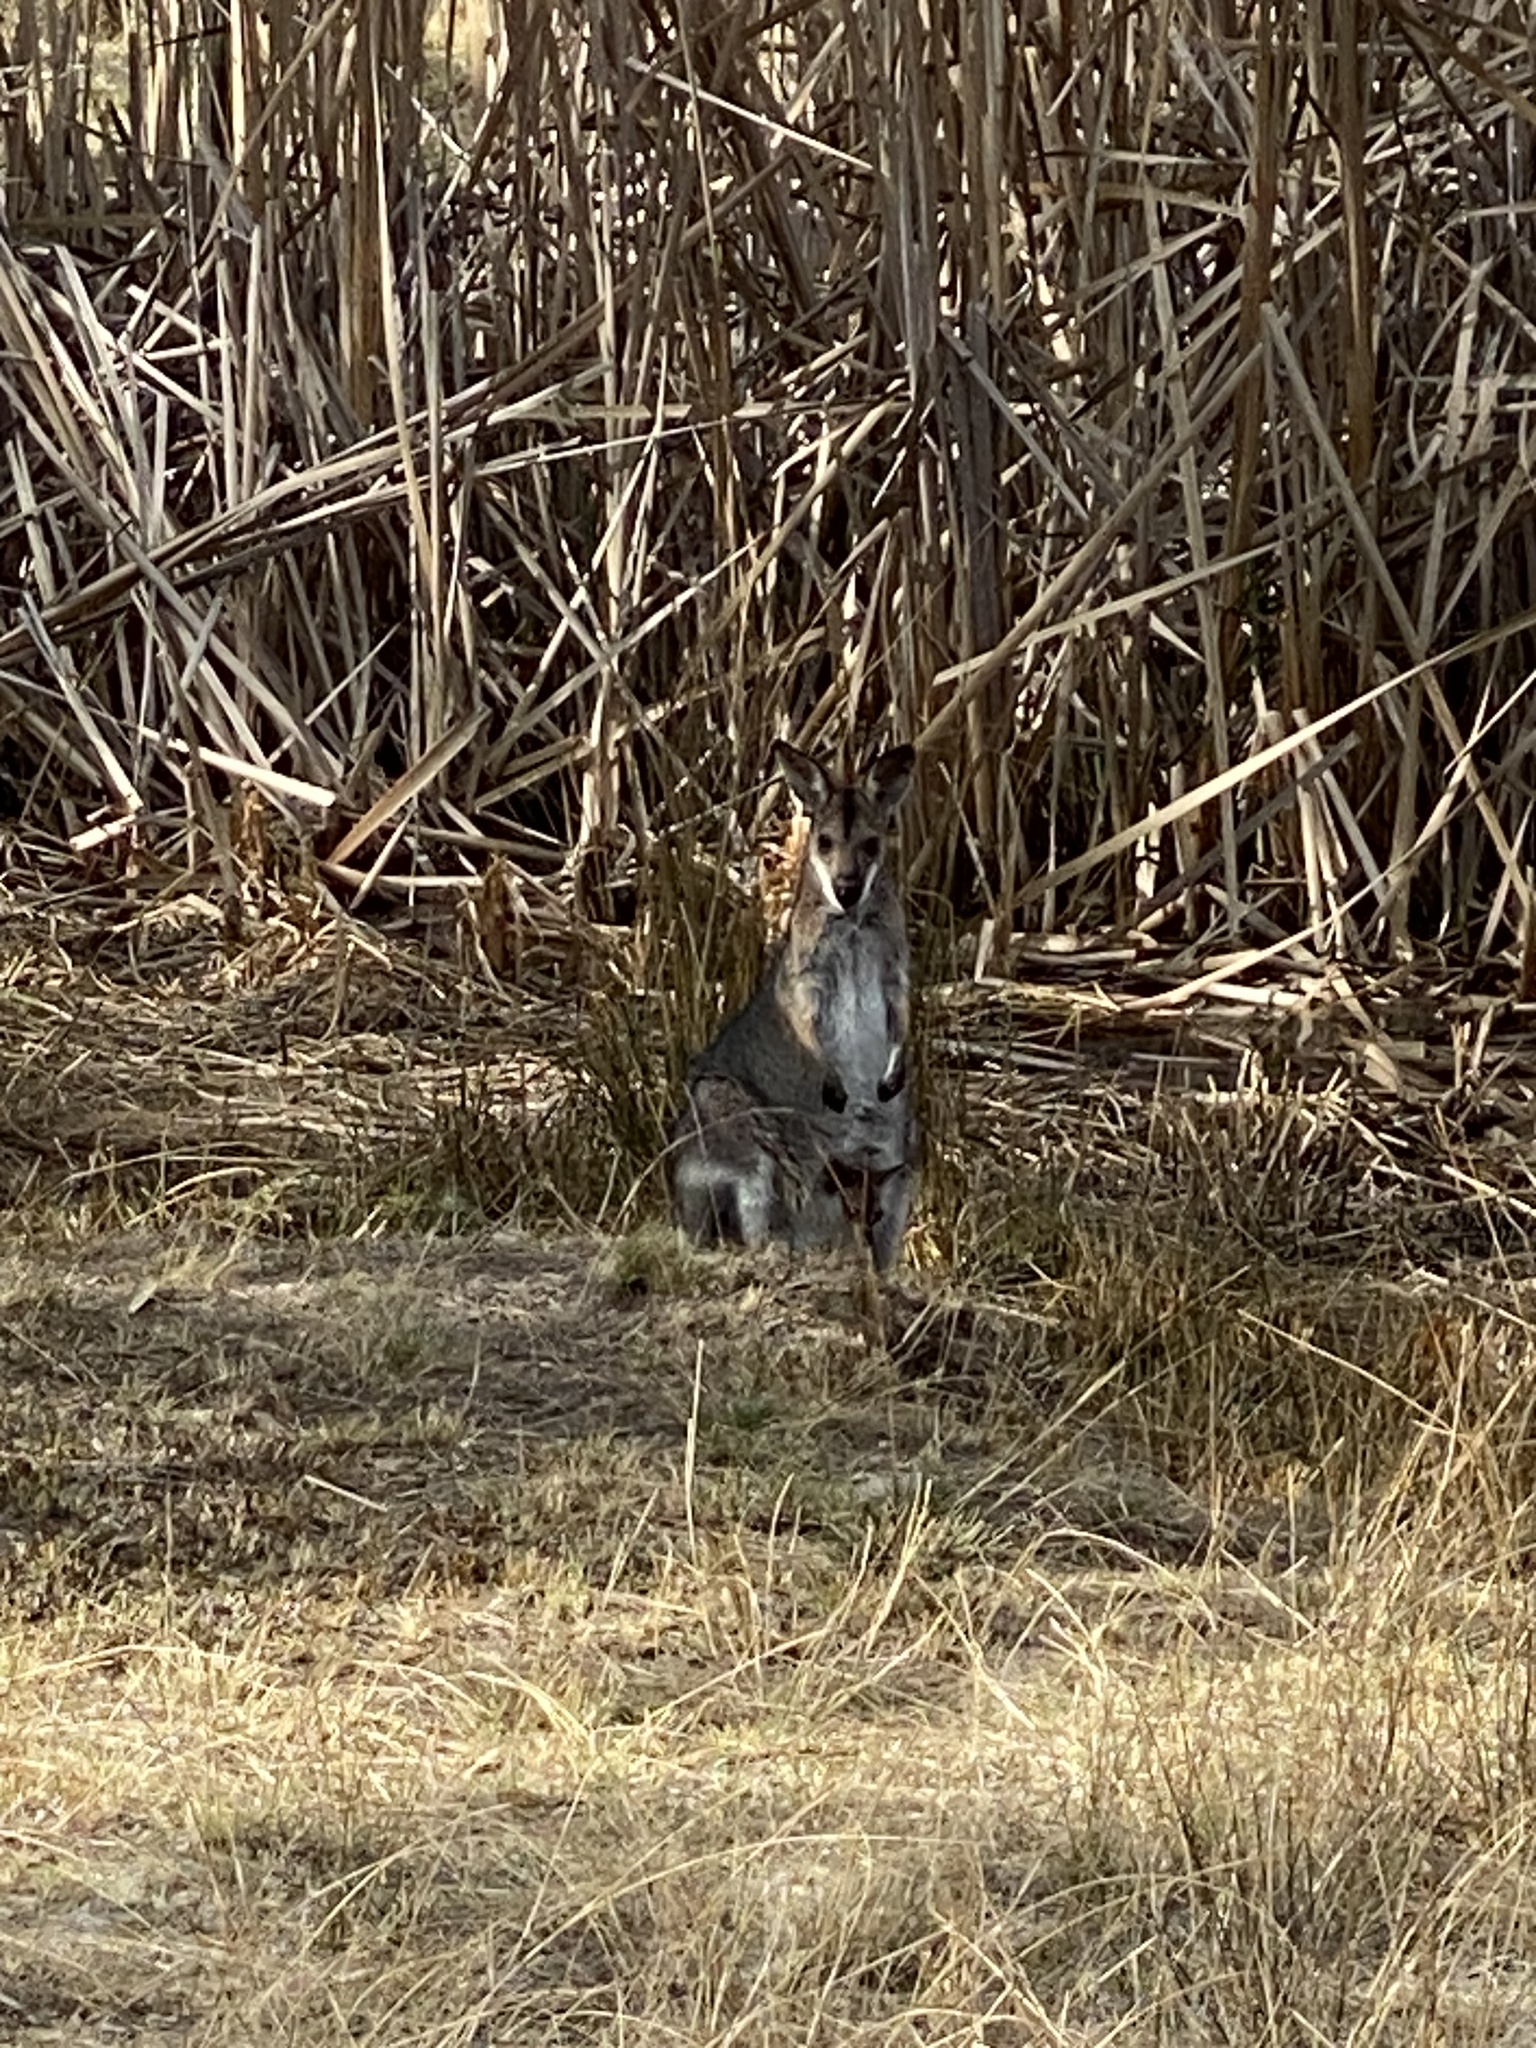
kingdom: Animalia
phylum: Chordata
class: Mammalia
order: Diprotodontia
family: Macropodidae
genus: Notamacropus
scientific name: Notamacropus rufogriseus
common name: Red-necked wallaby
